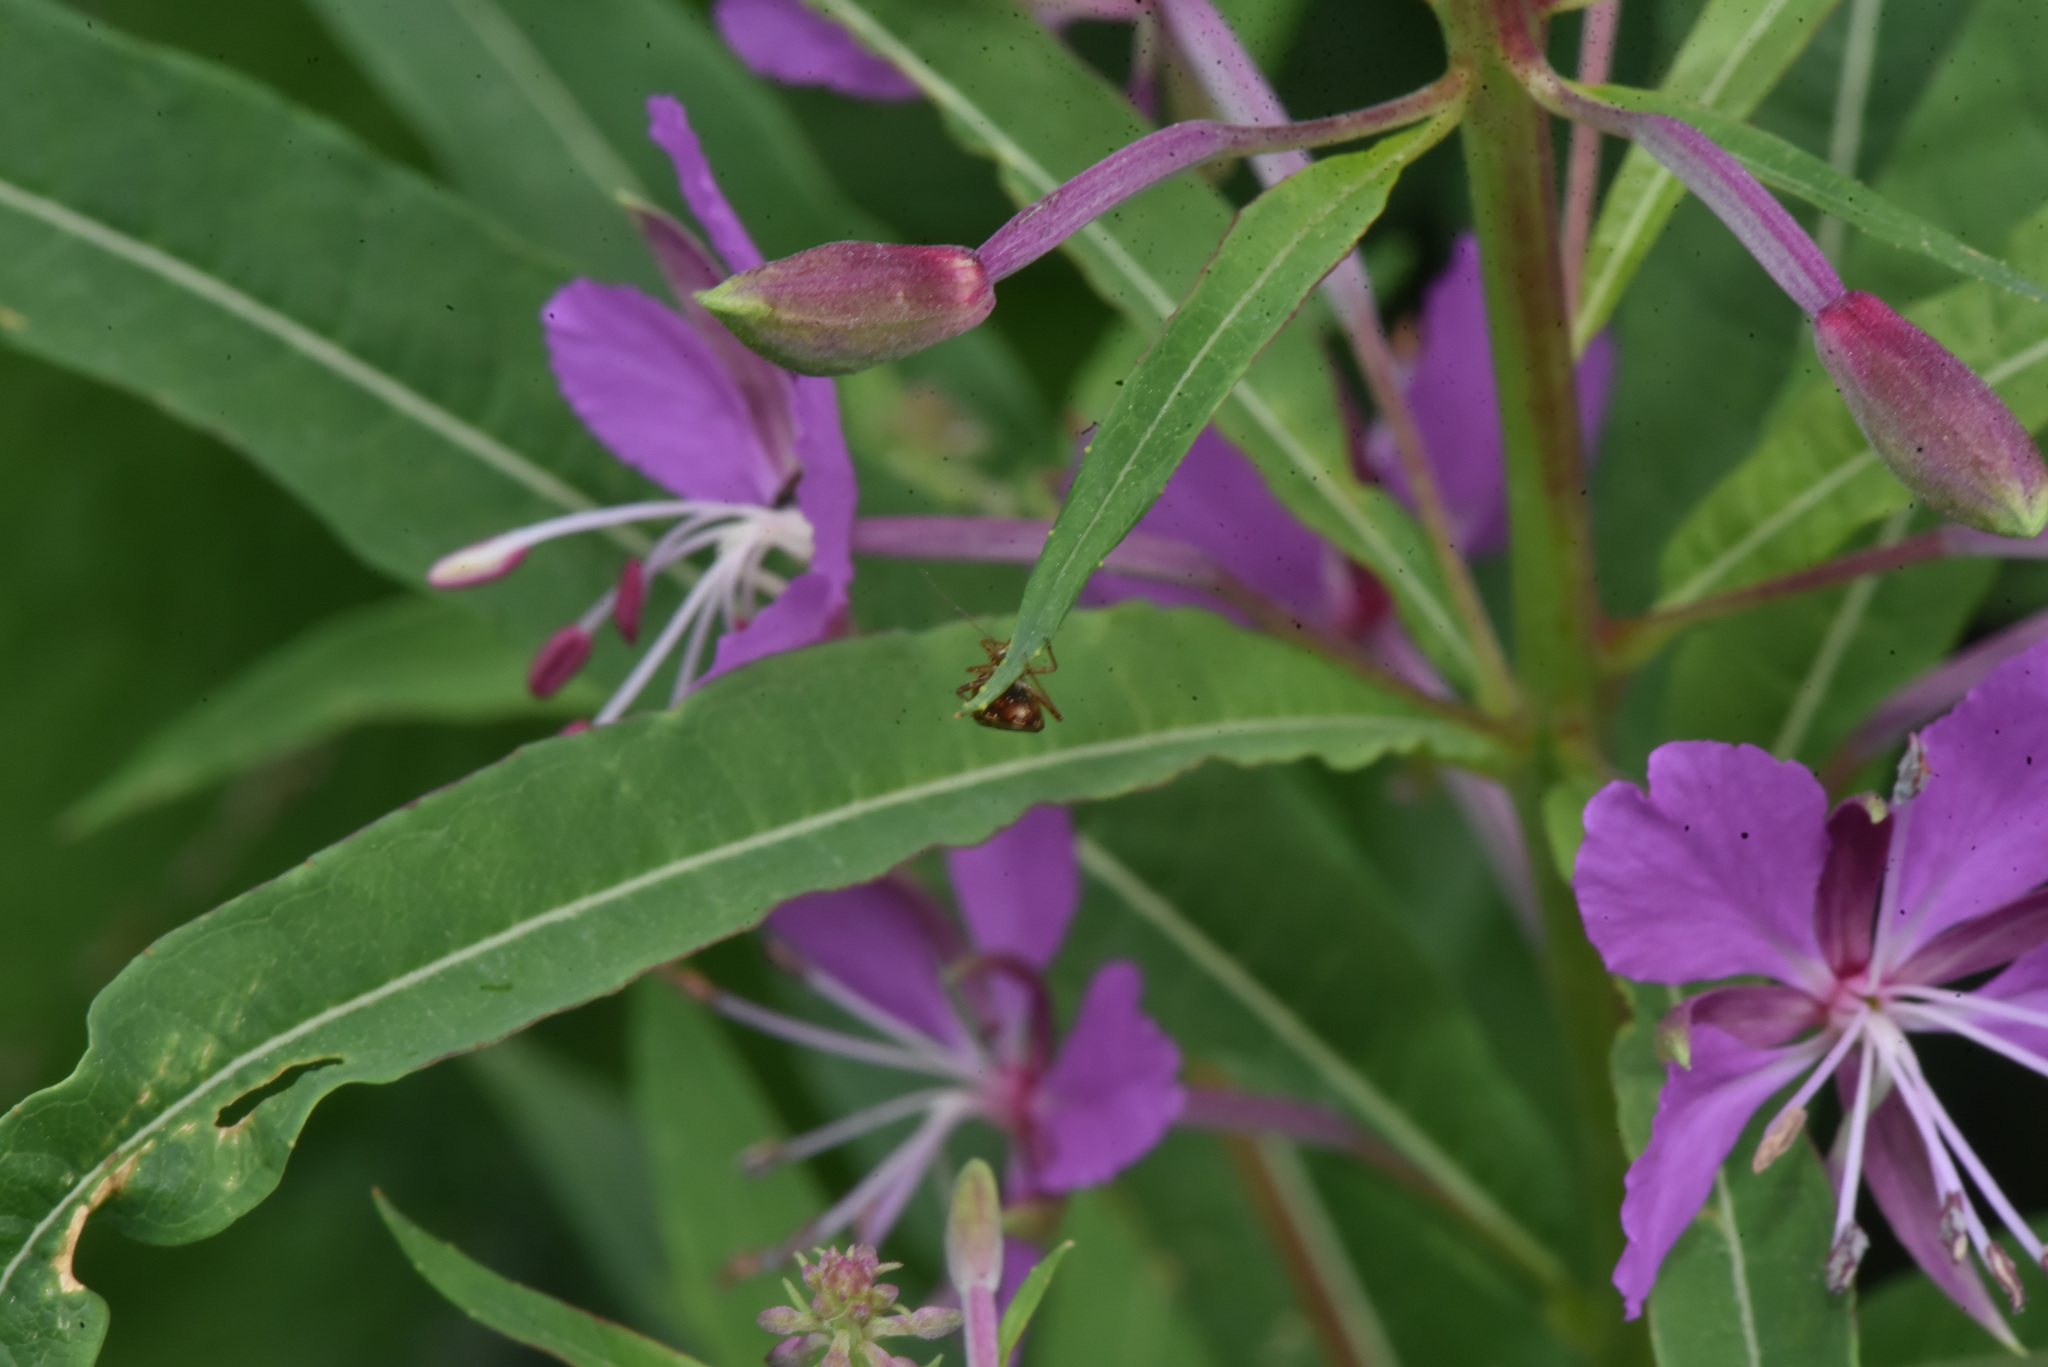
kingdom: Plantae
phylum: Tracheophyta
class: Magnoliopsida
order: Myrtales
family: Onagraceae
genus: Chamaenerion
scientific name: Chamaenerion angustifolium
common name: Fireweed
